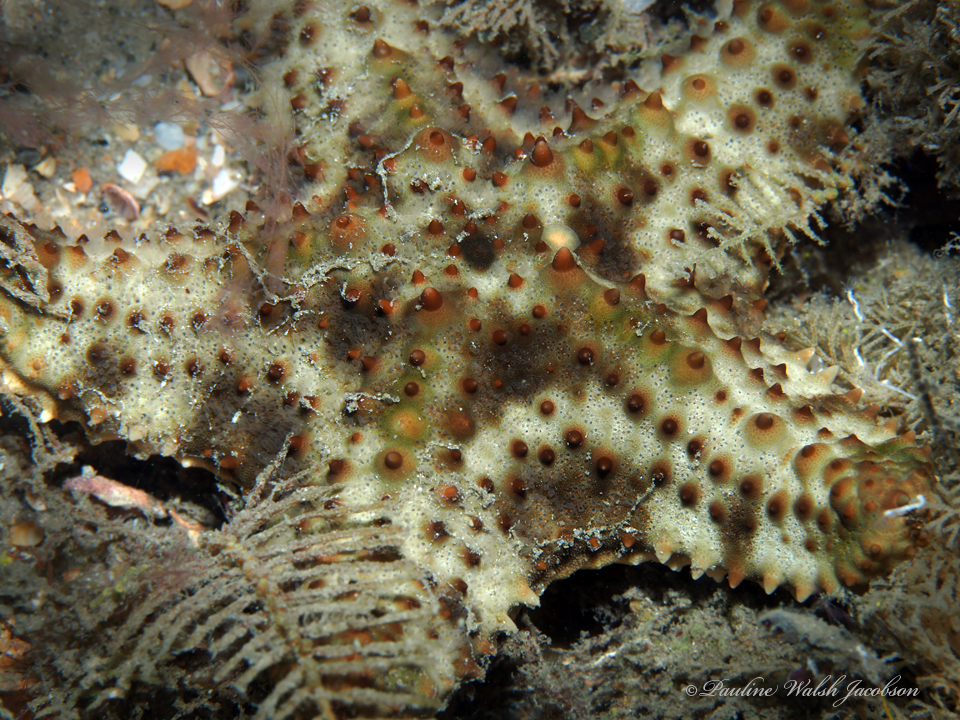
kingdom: Animalia
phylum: Echinodermata
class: Asteroidea
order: Valvatida
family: Oreasteridae
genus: Oreaster
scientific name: Oreaster reticulatus
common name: Cushion sea star
